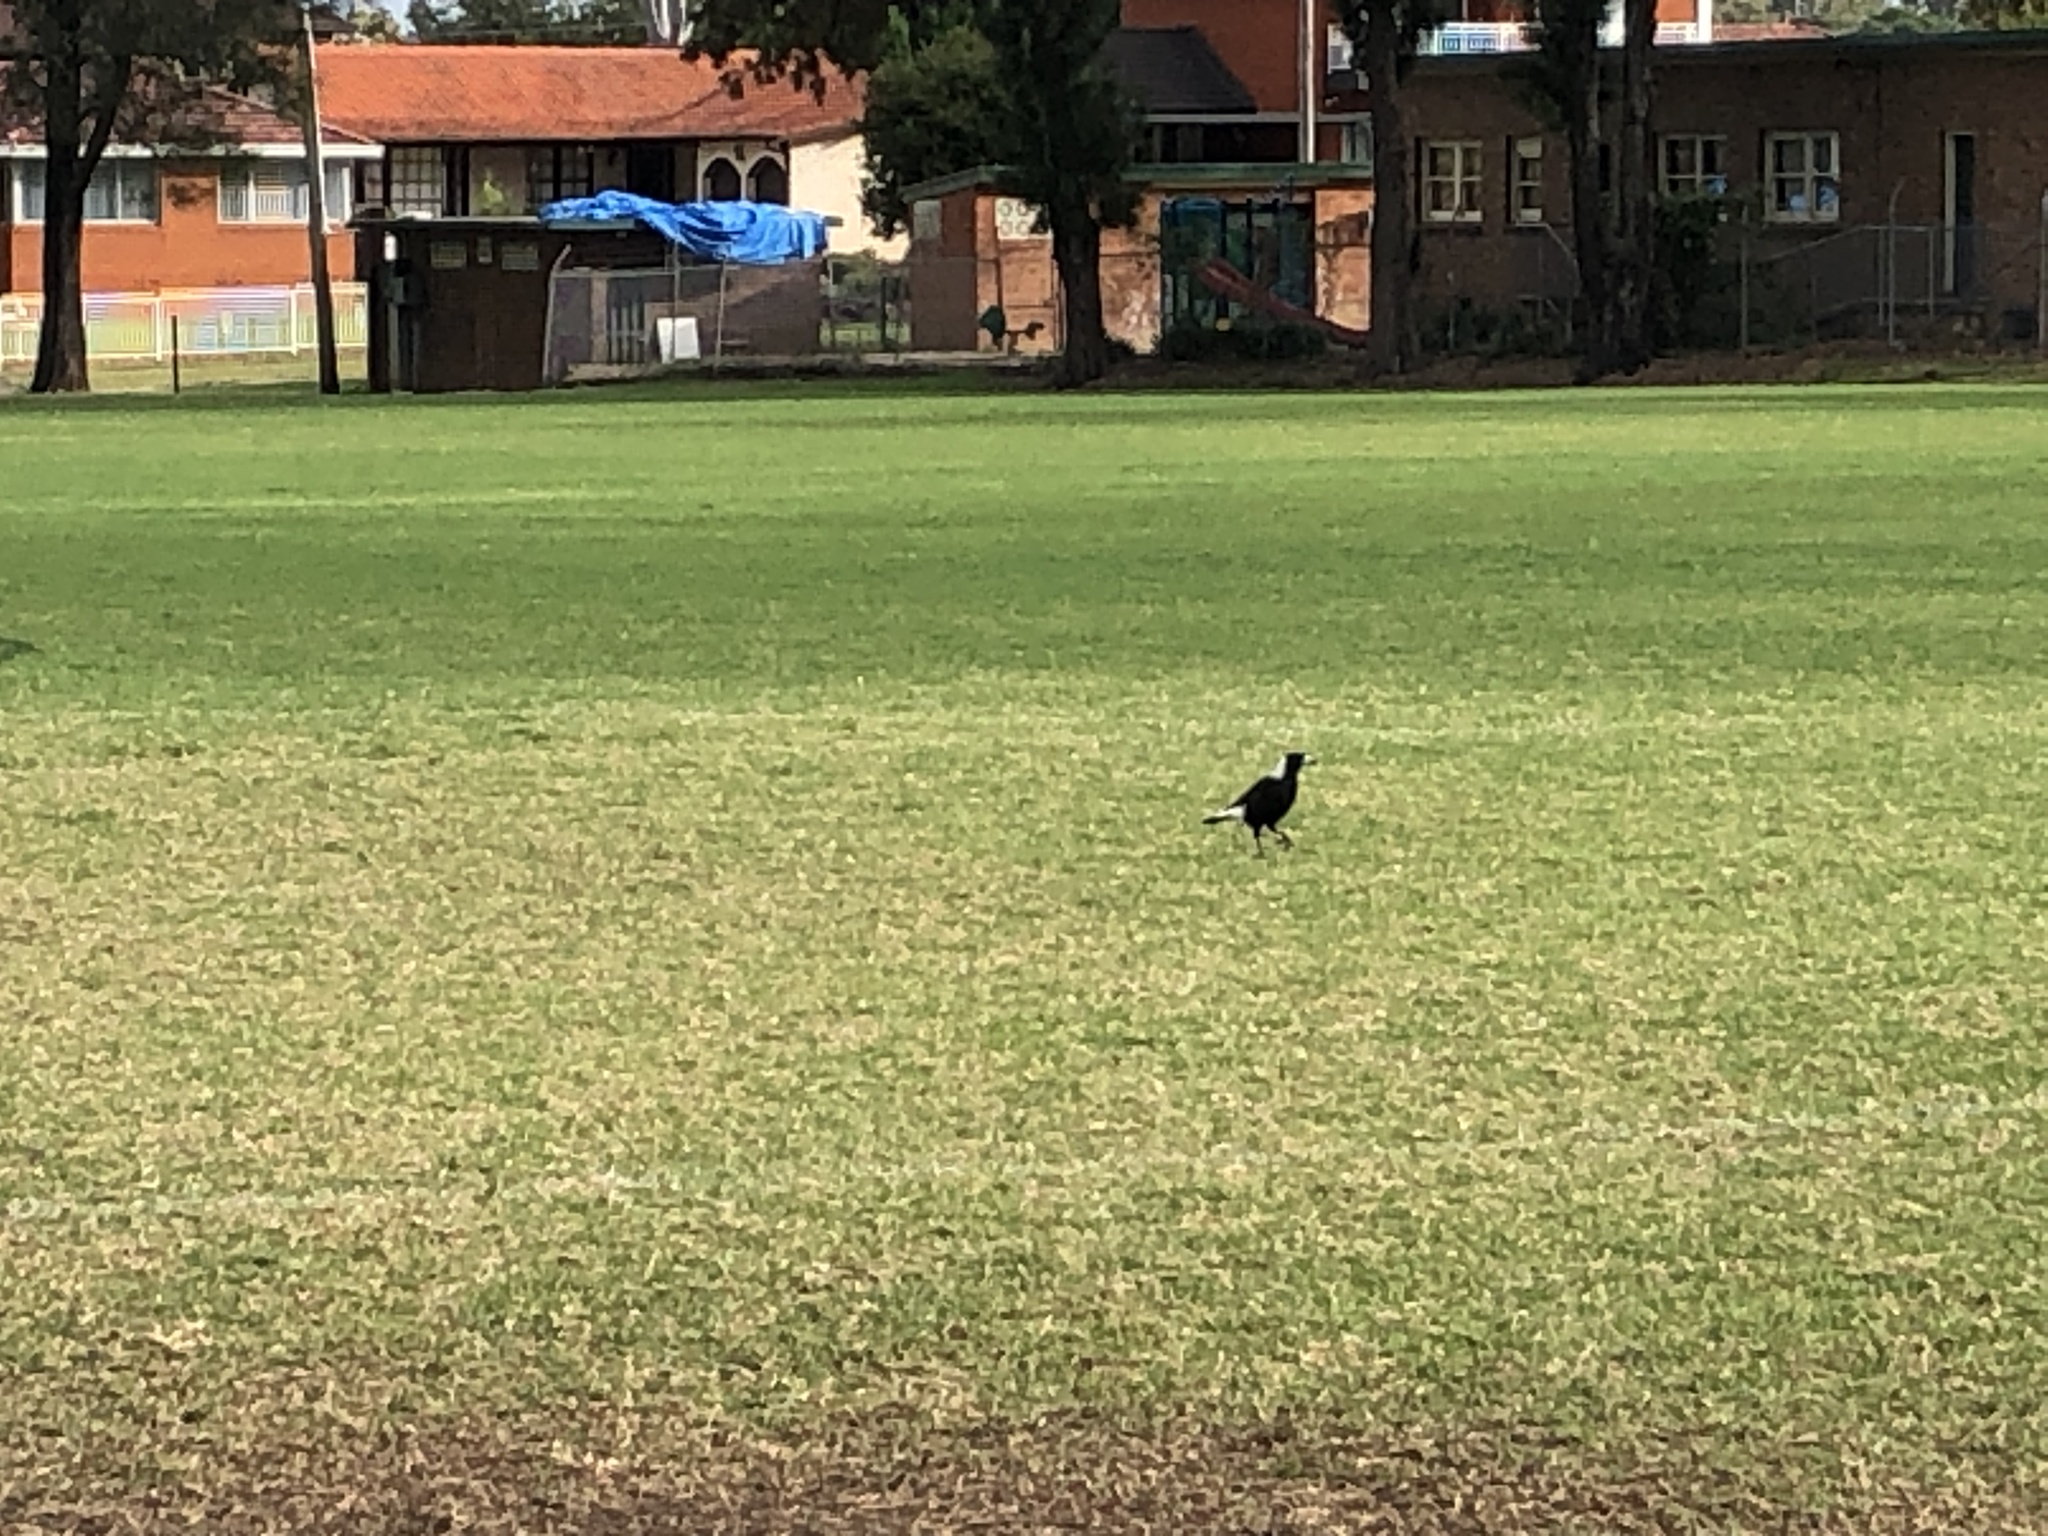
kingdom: Animalia
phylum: Chordata
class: Aves
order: Passeriformes
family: Cracticidae
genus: Gymnorhina
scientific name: Gymnorhina tibicen
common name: Australian magpie
